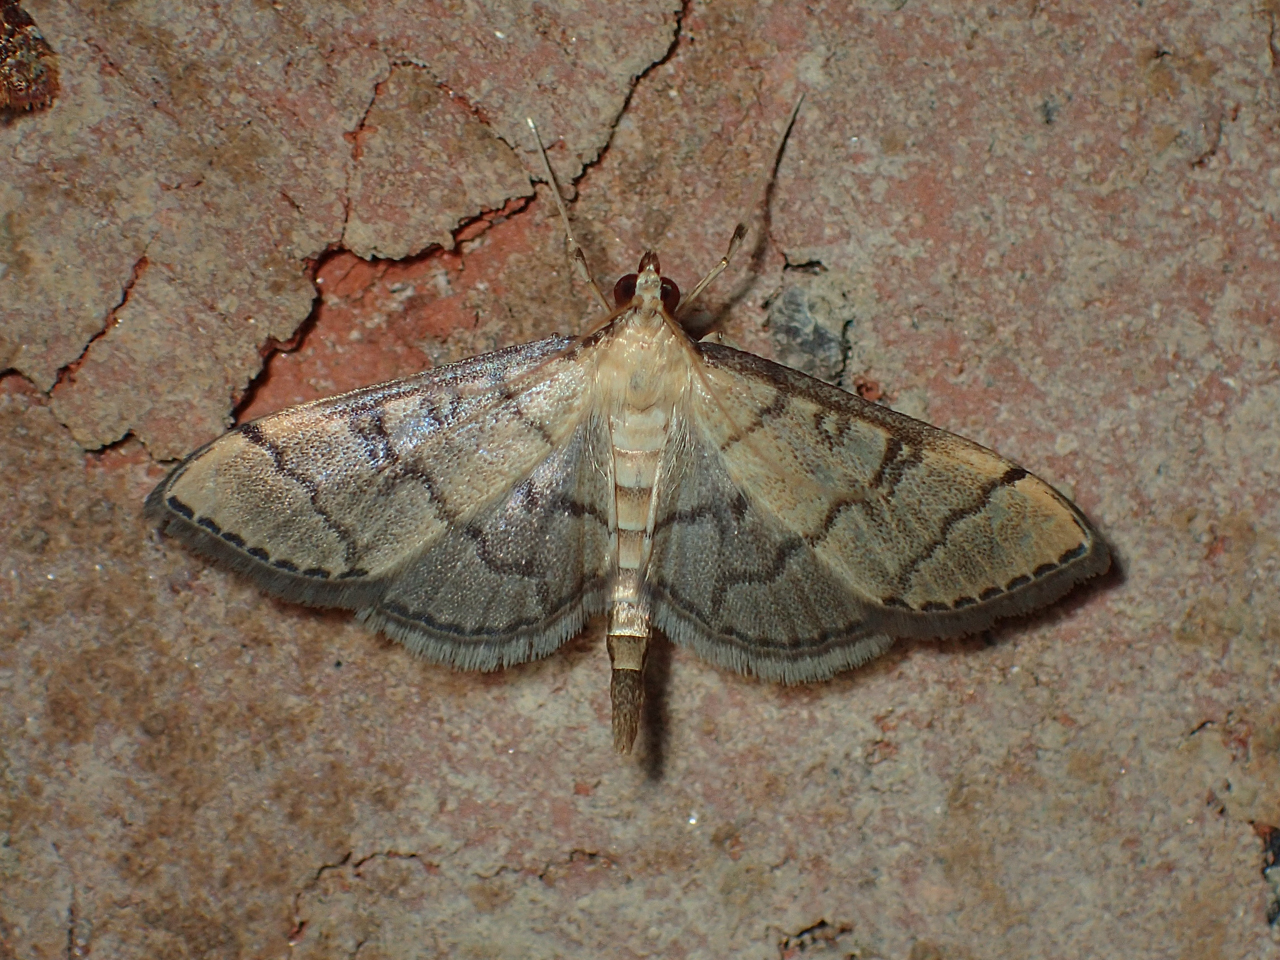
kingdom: Animalia
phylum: Arthropoda
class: Insecta
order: Lepidoptera
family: Crambidae
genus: Lamprosema
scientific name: Lamprosema Blepharomastix ranalis
